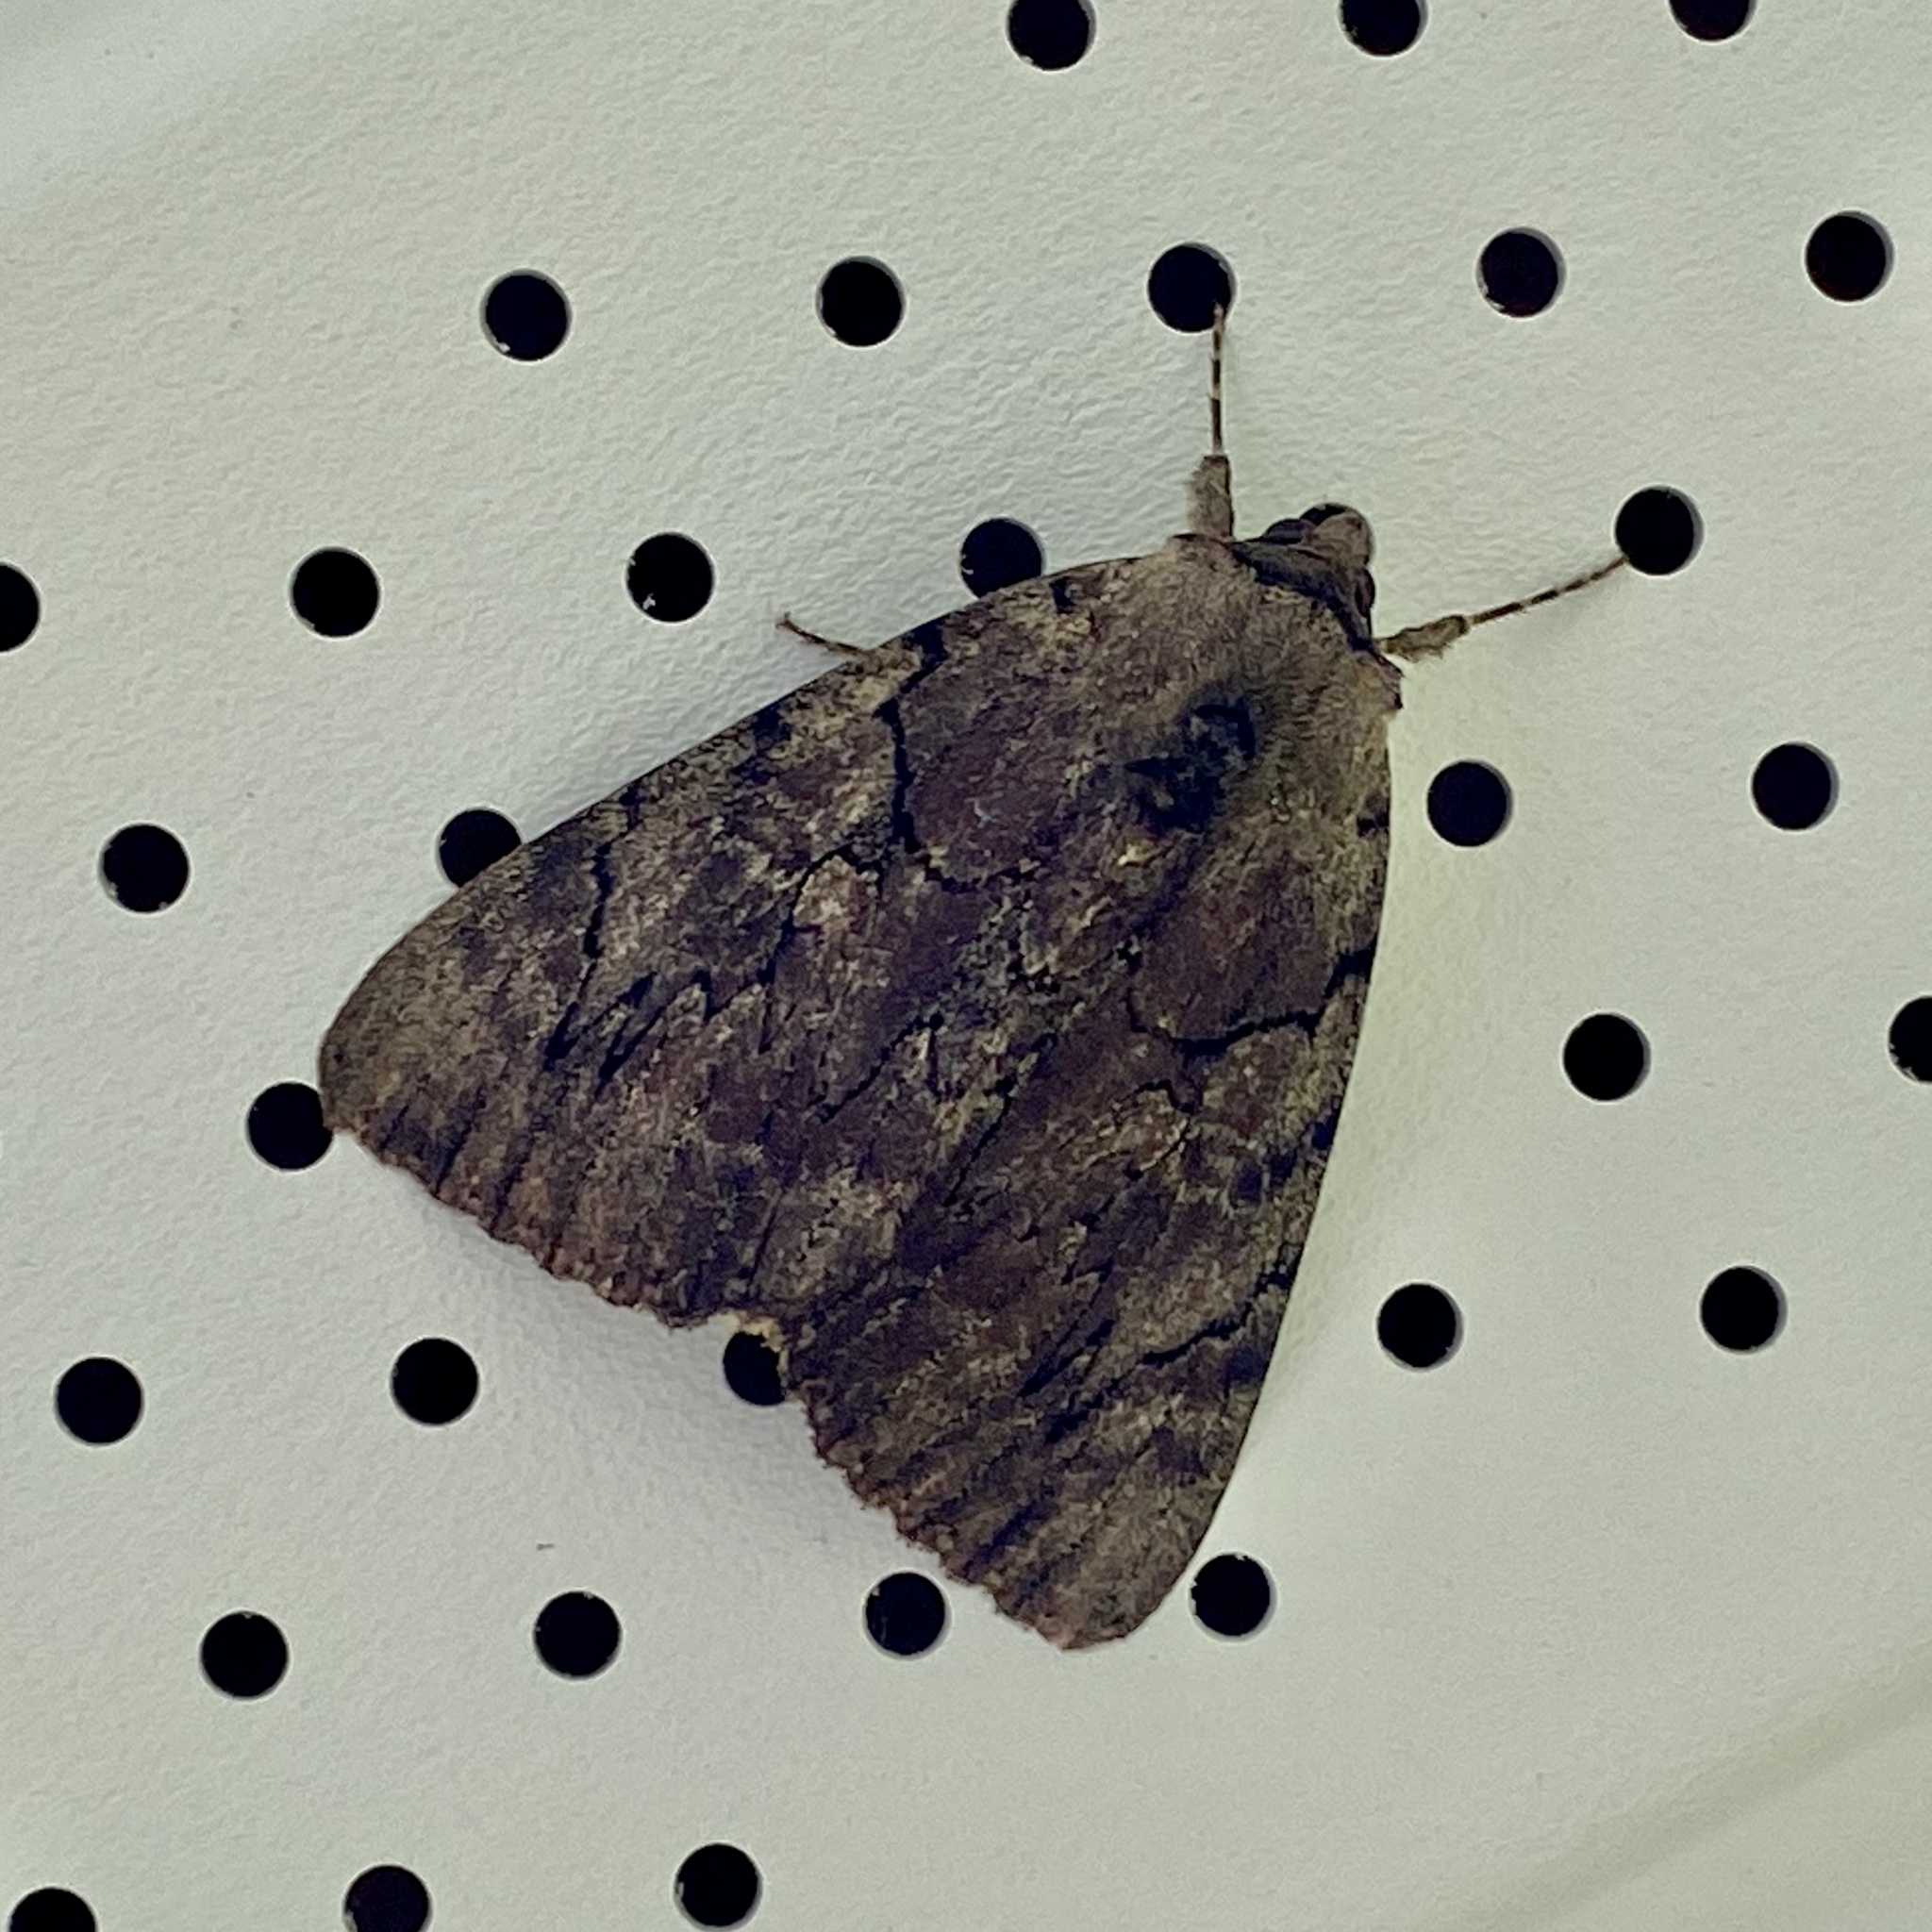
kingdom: Animalia
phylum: Arthropoda
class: Insecta
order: Lepidoptera
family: Erebidae
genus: Catocala
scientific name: Catocala cara
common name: Darling underwing
